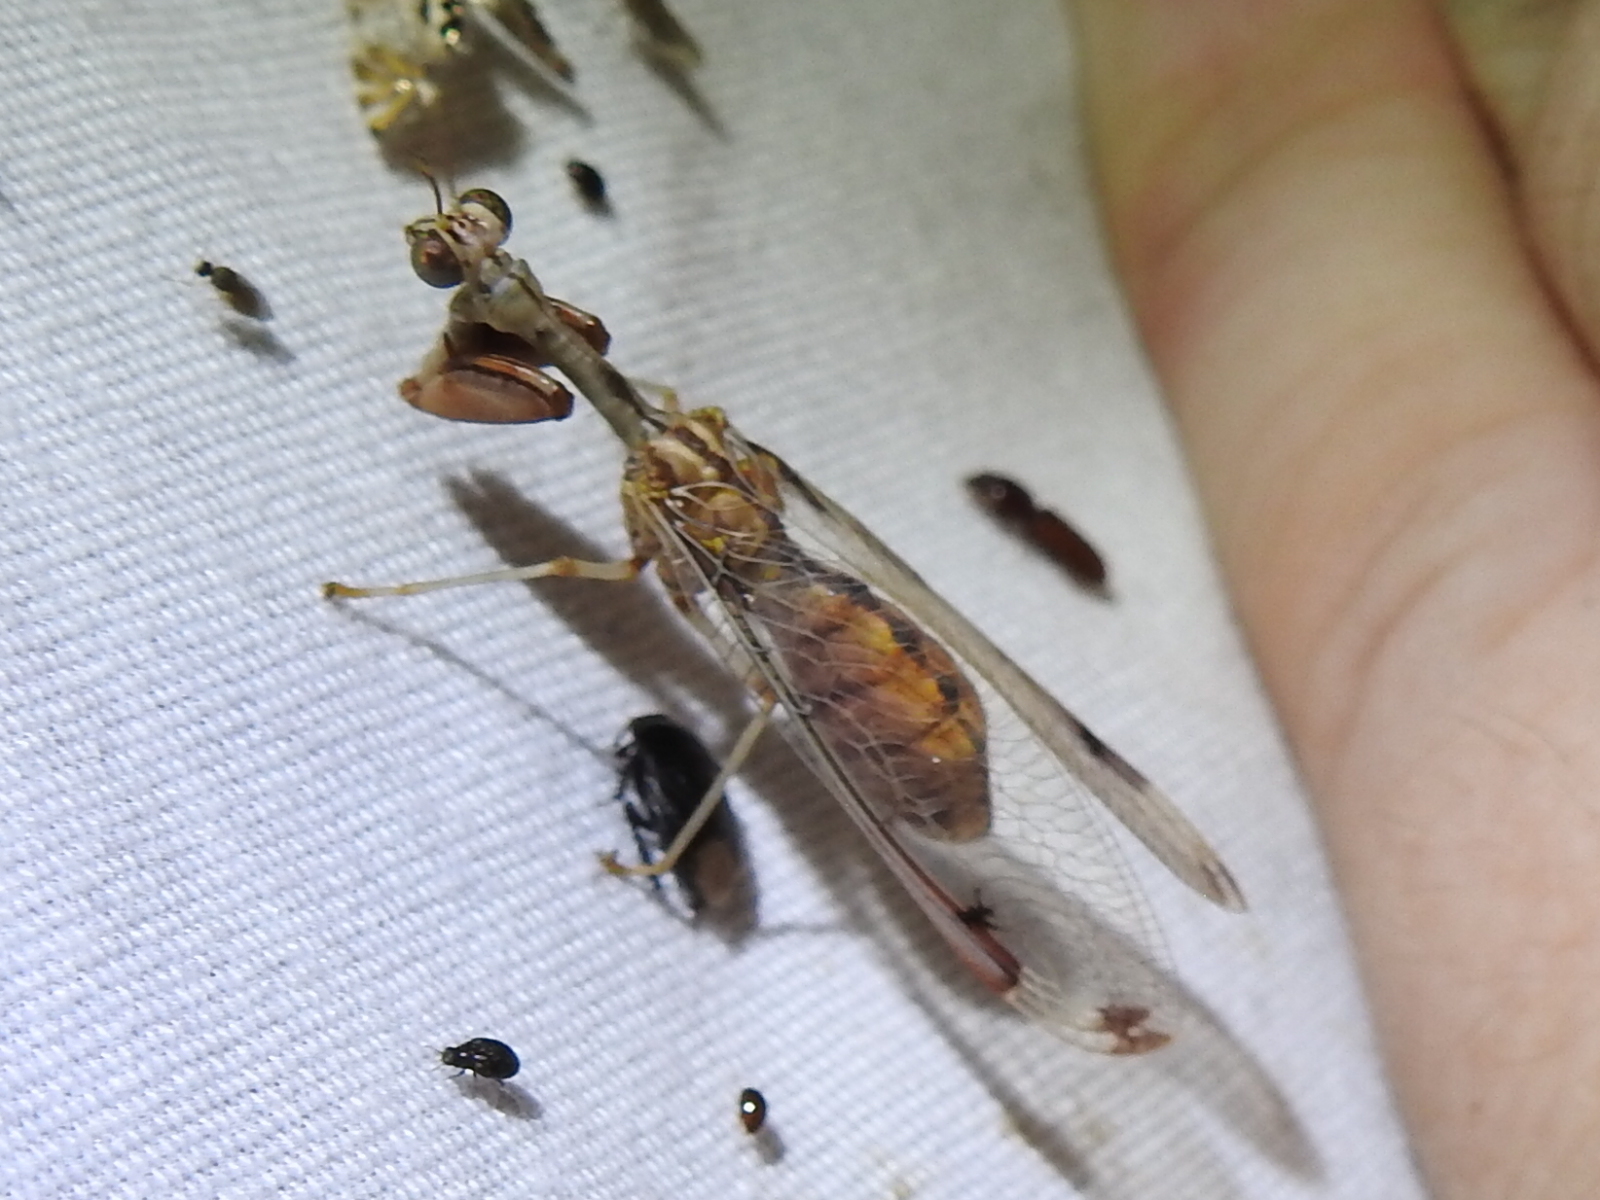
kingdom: Animalia
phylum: Arthropoda
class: Insecta
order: Neuroptera
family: Mantispidae
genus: Dicromantispa
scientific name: Dicromantispa interrupta
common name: Four-spotted mantidfly
